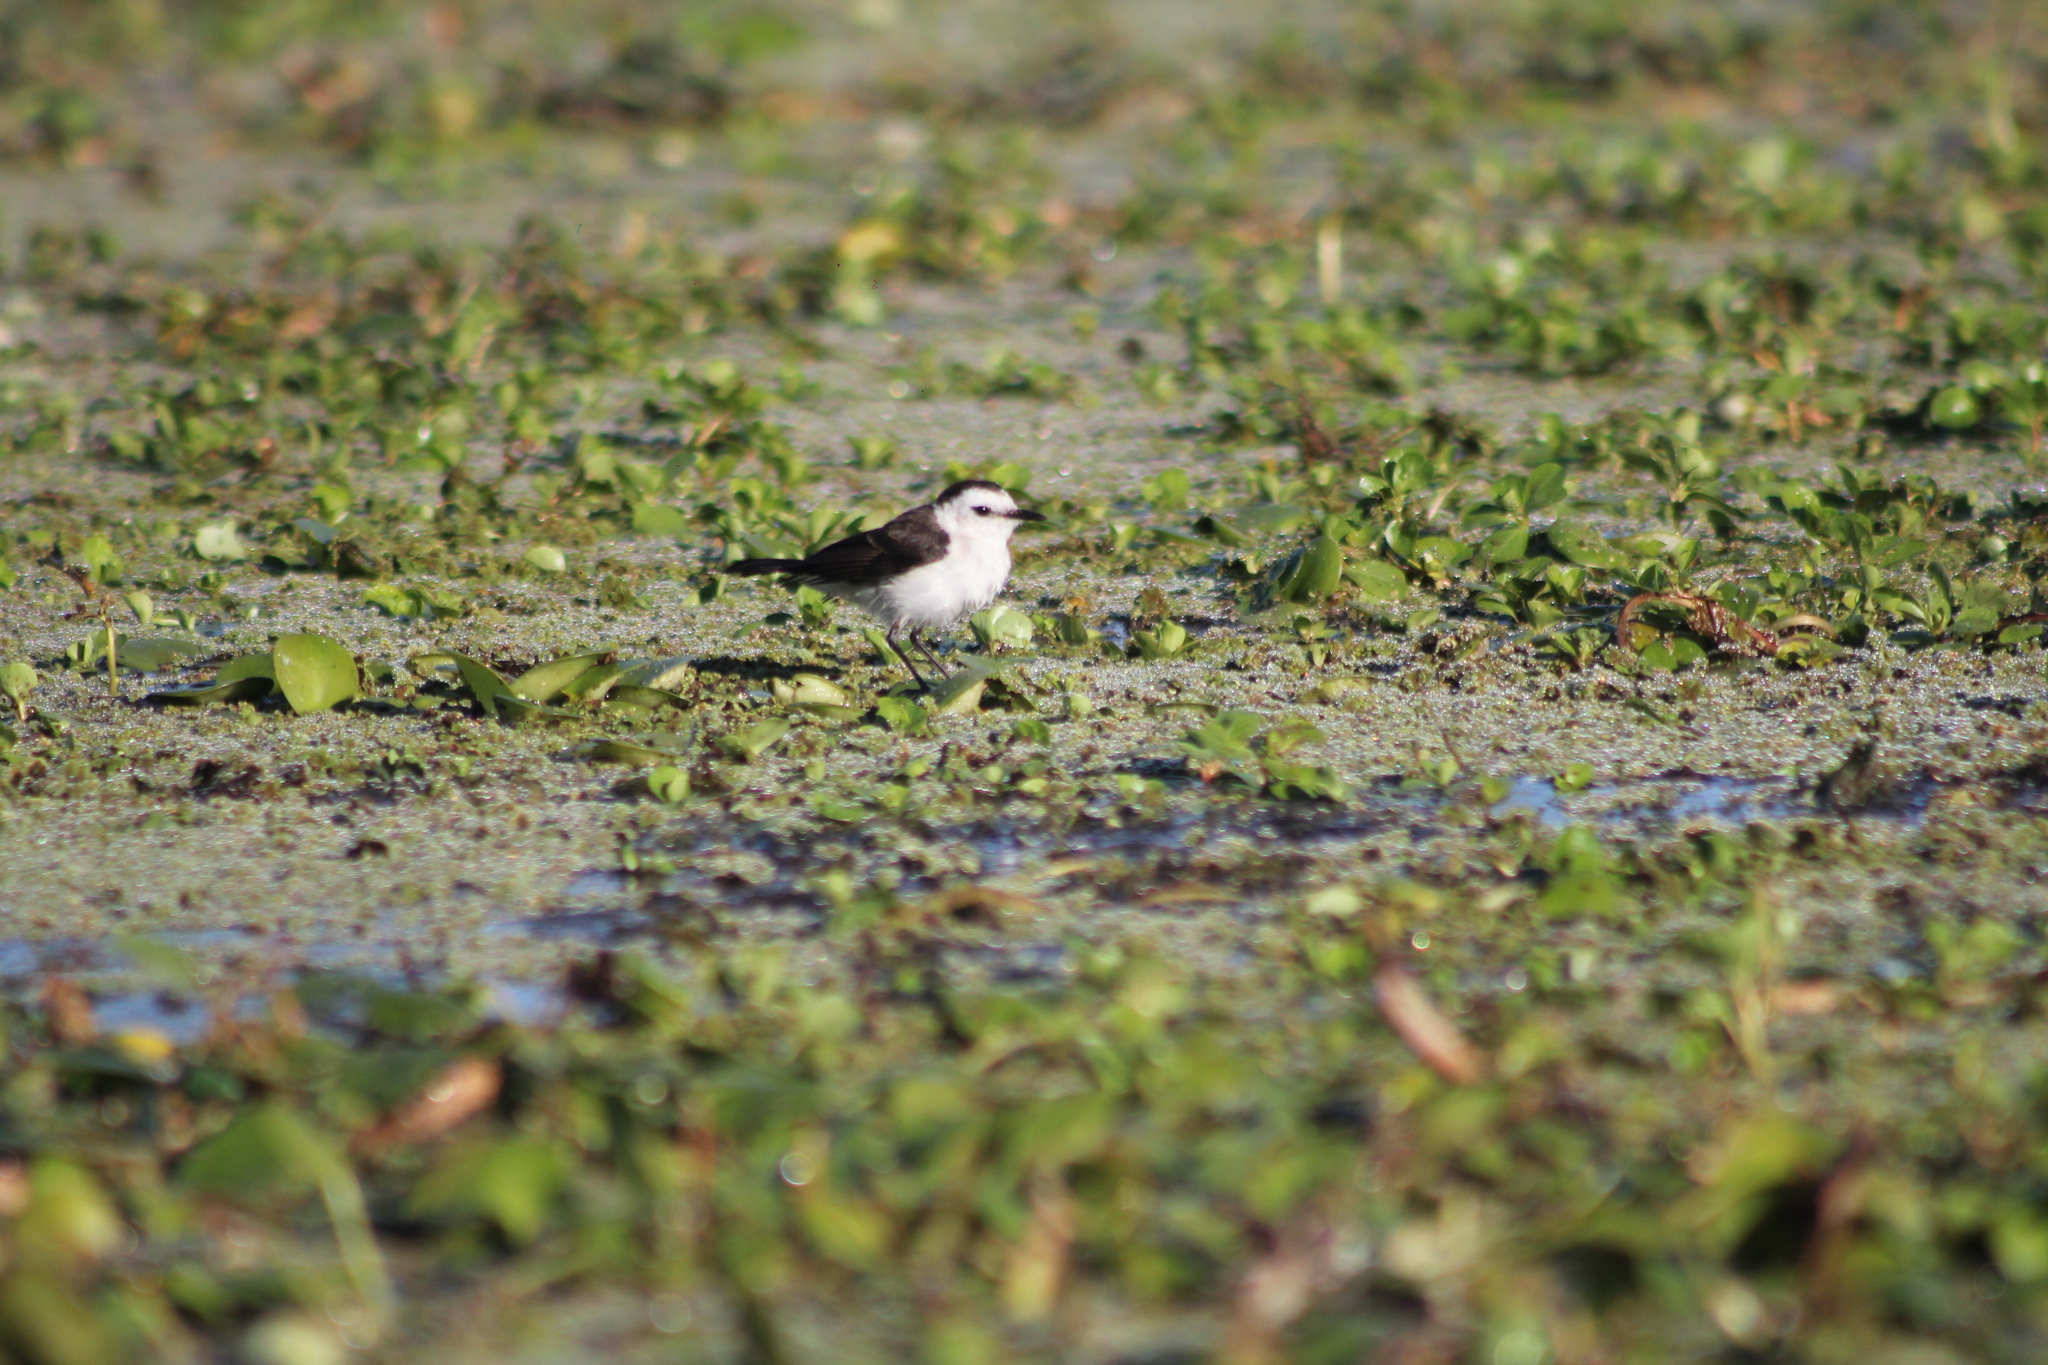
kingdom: Animalia
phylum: Chordata
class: Aves
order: Passeriformes
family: Tyrannidae
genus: Fluvicola
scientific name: Fluvicola pica
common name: Pied water-tyrant
